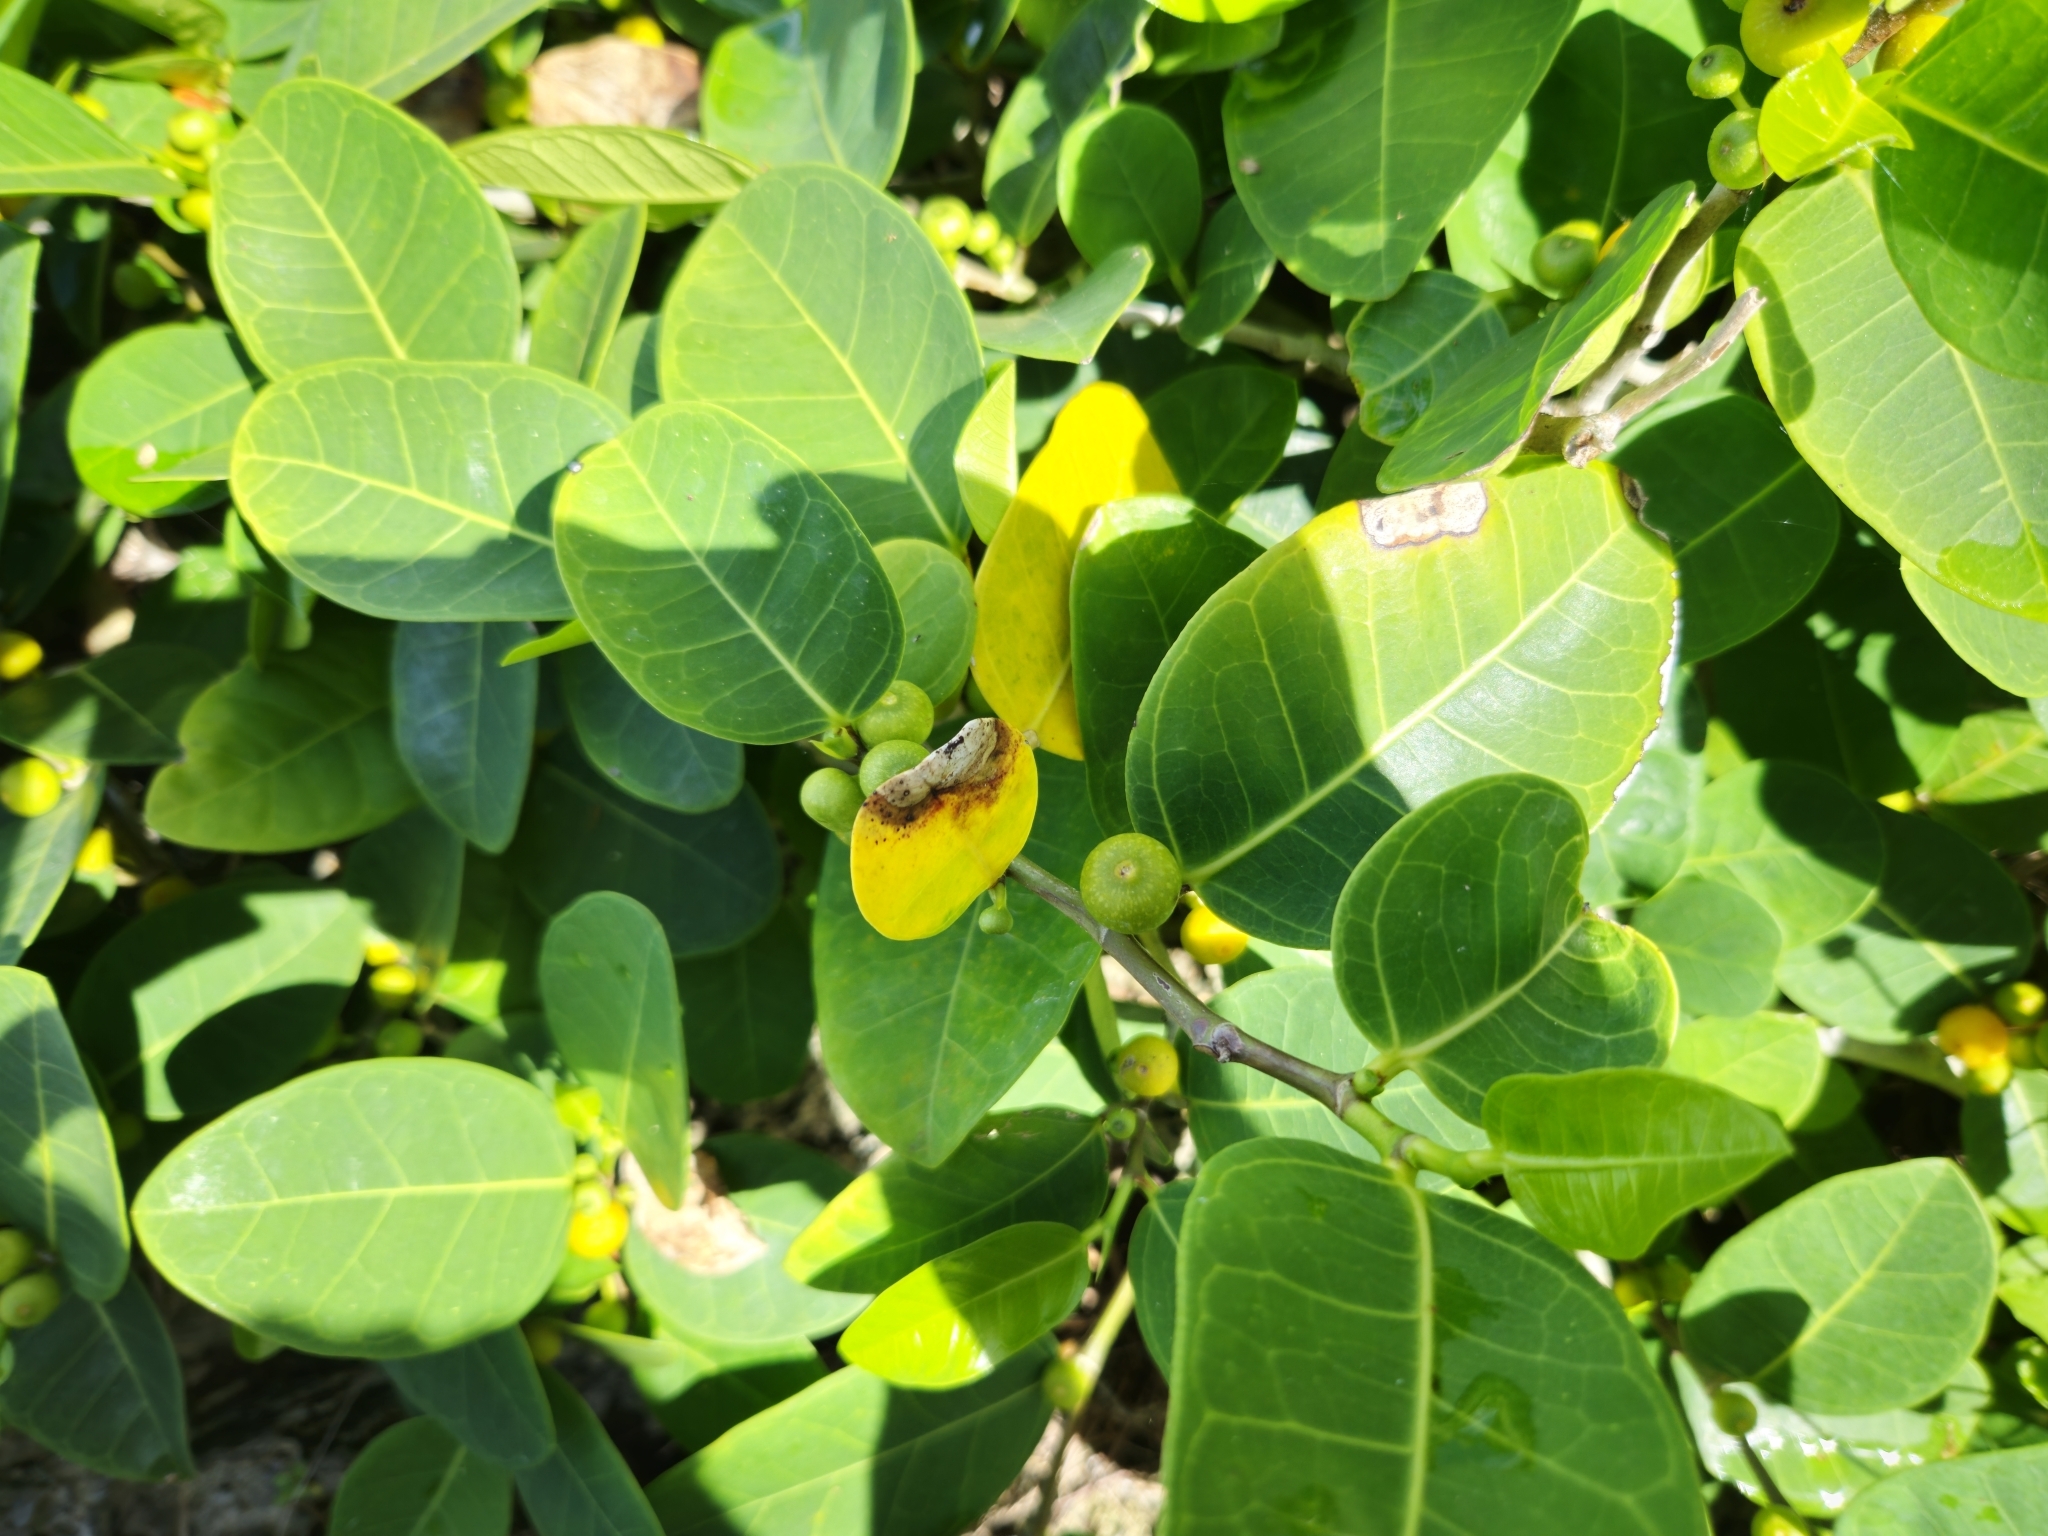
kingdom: Plantae
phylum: Tracheophyta
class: Magnoliopsida
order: Rosales
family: Moraceae
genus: Ficus
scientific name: Ficus tinctoria
